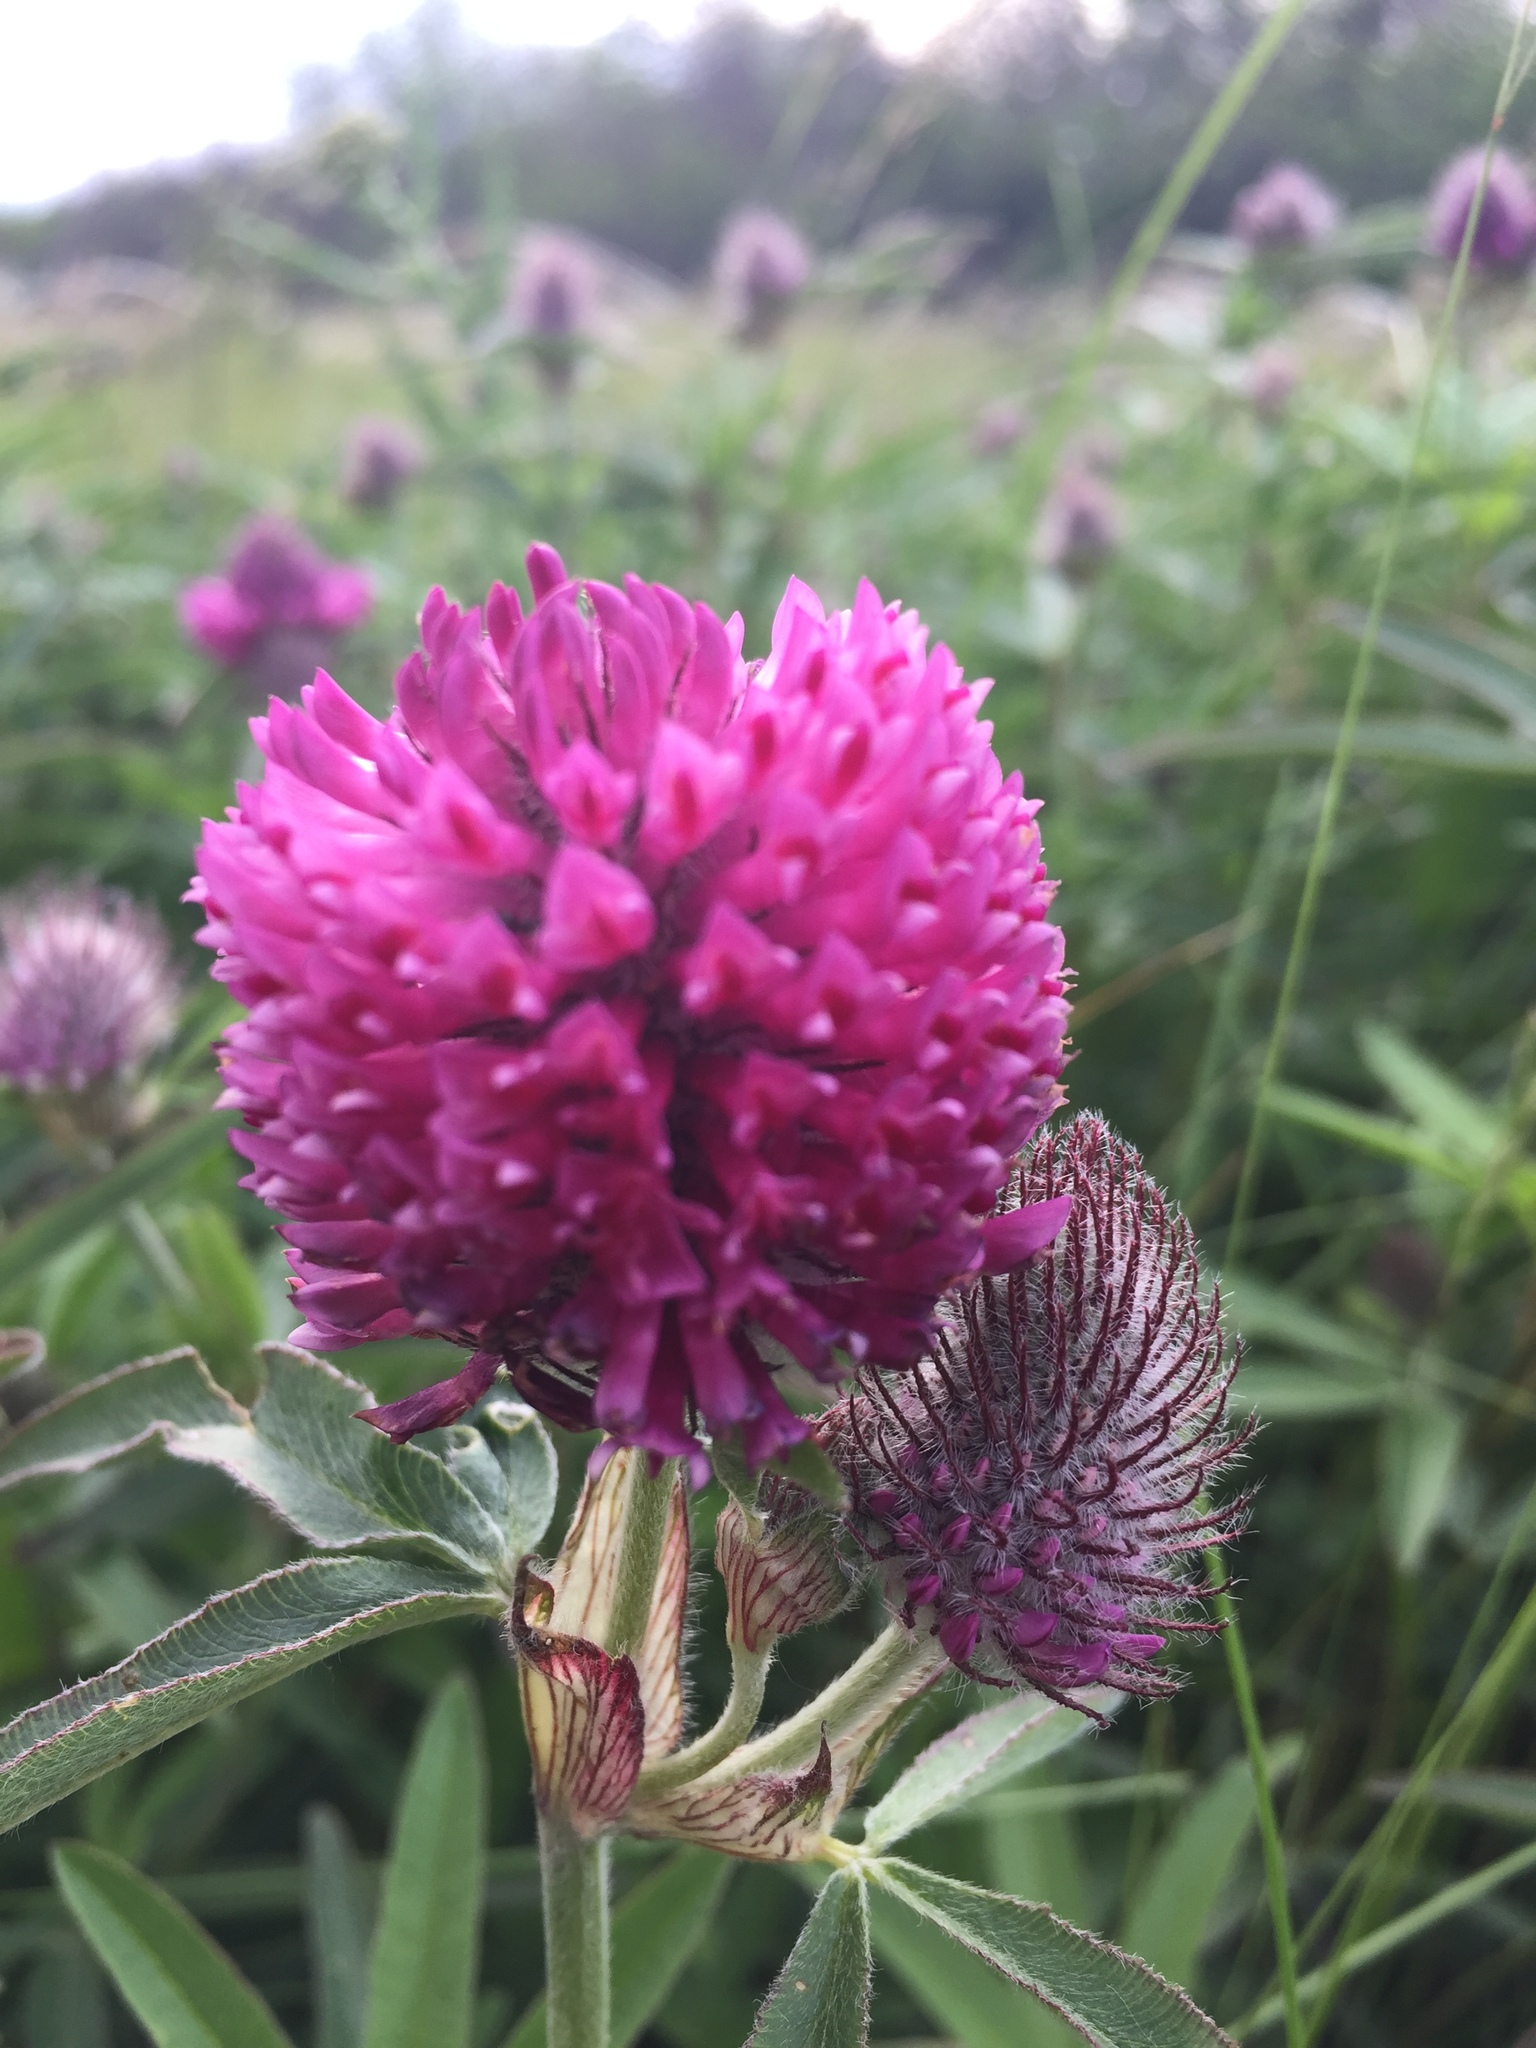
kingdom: Plantae
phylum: Tracheophyta
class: Magnoliopsida
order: Fabales
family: Fabaceae
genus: Trifolium
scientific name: Trifolium alpestre
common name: Owl-head clover
